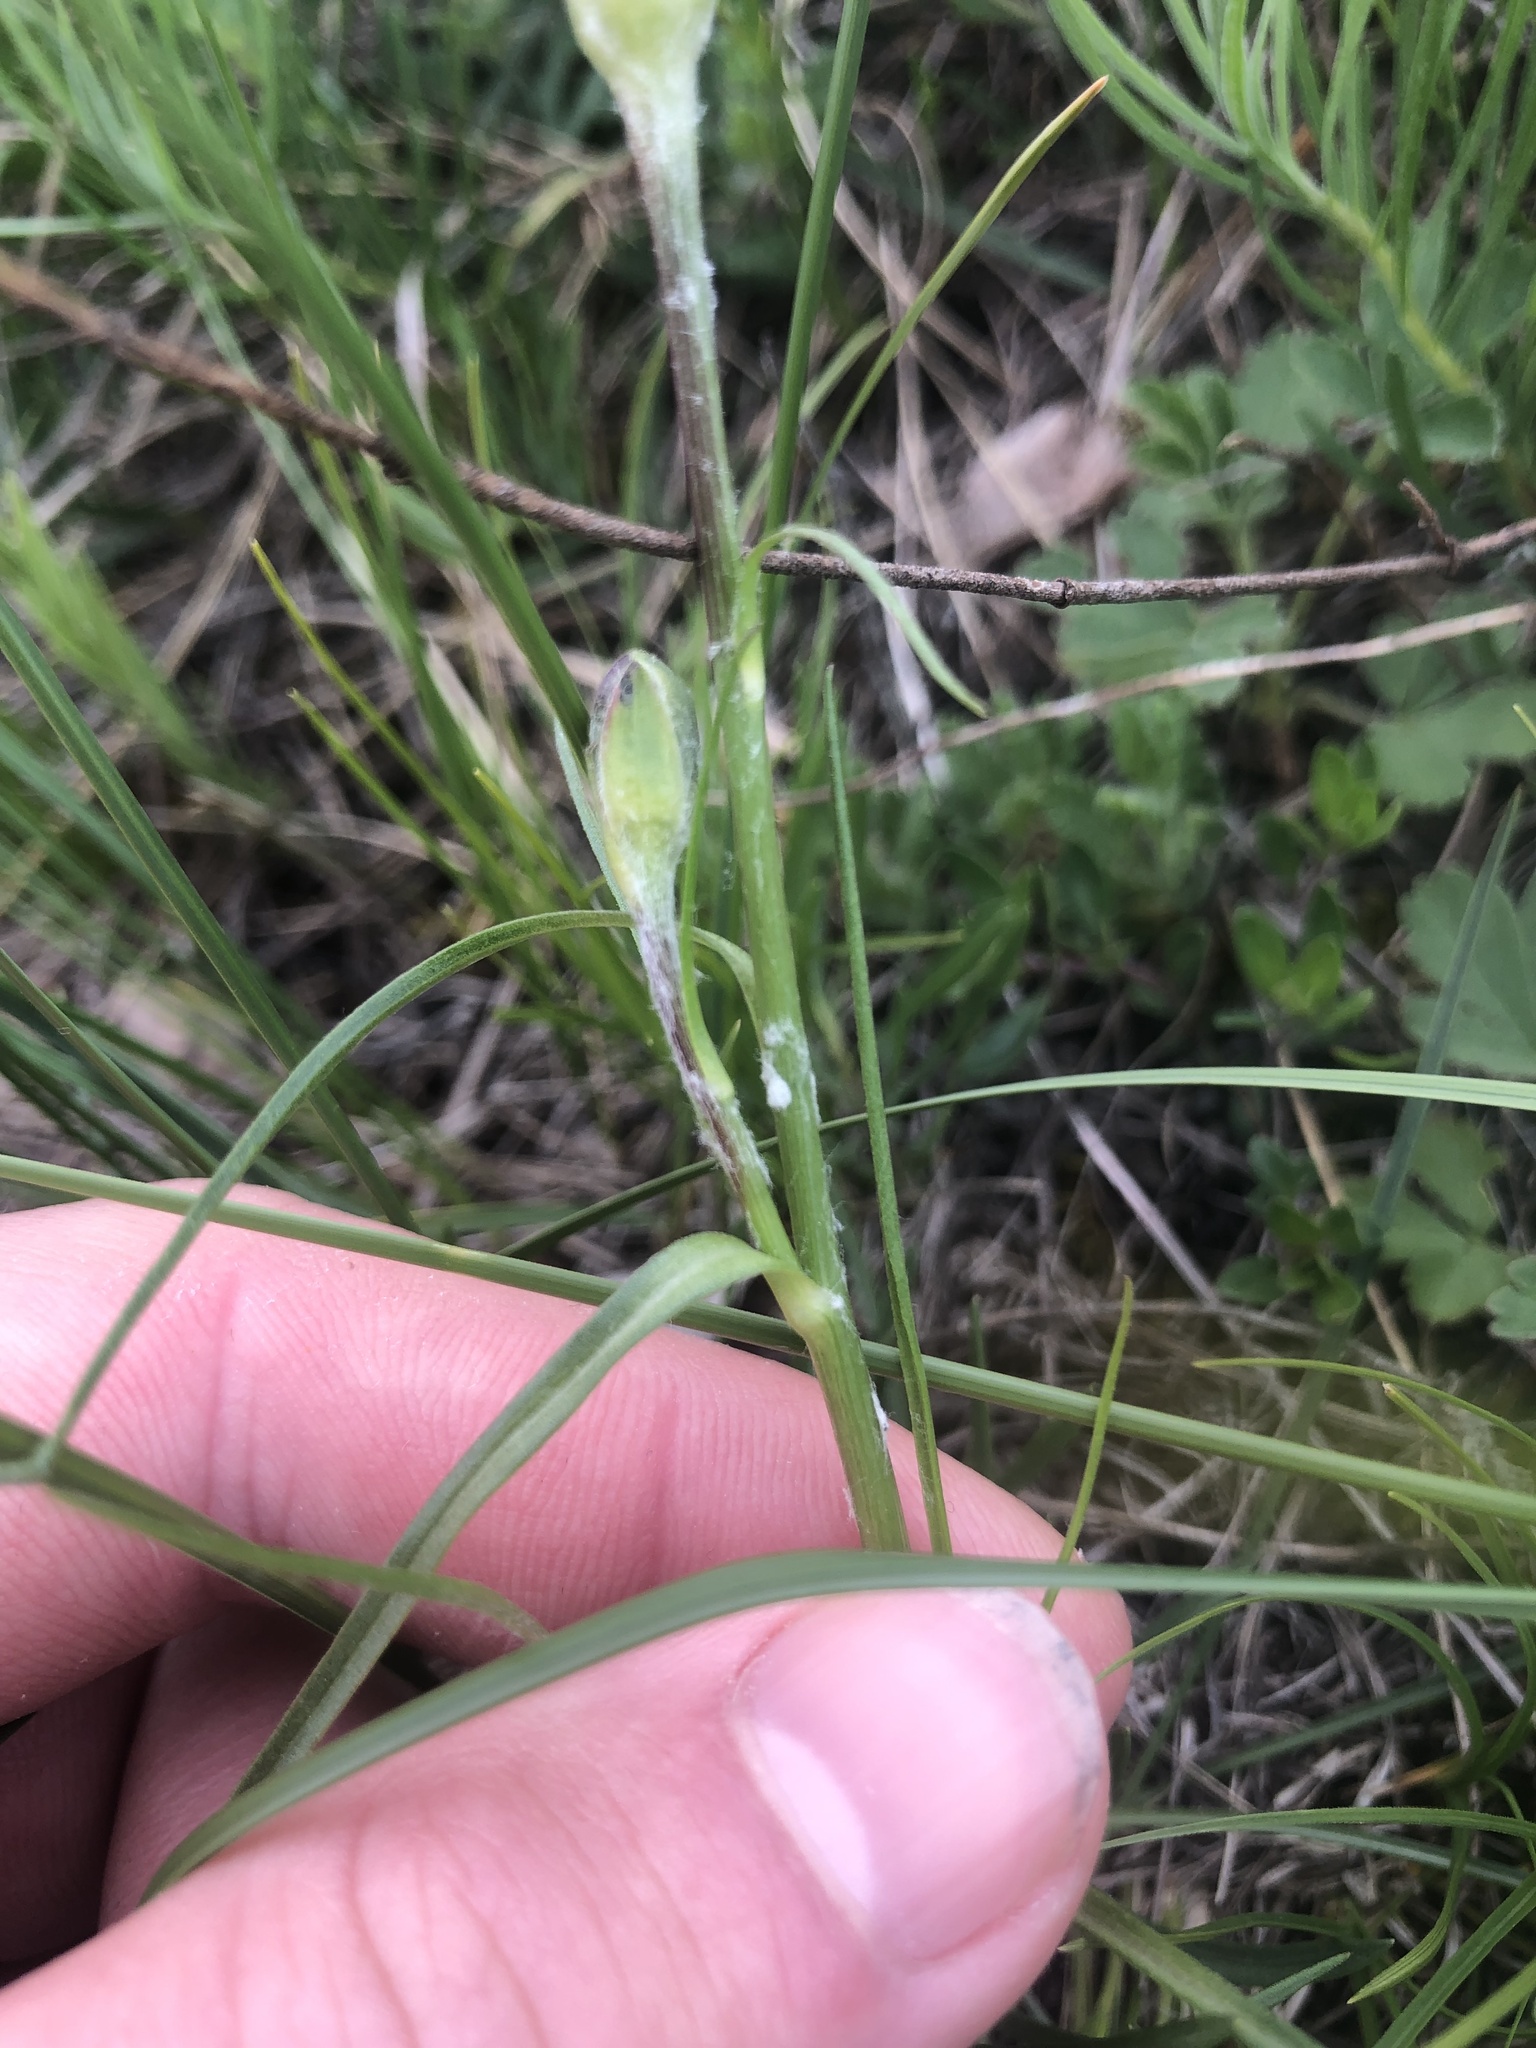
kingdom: Plantae
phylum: Tracheophyta
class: Magnoliopsida
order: Asterales
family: Asteraceae
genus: Scorzonera
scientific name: Scorzonera purpurea
